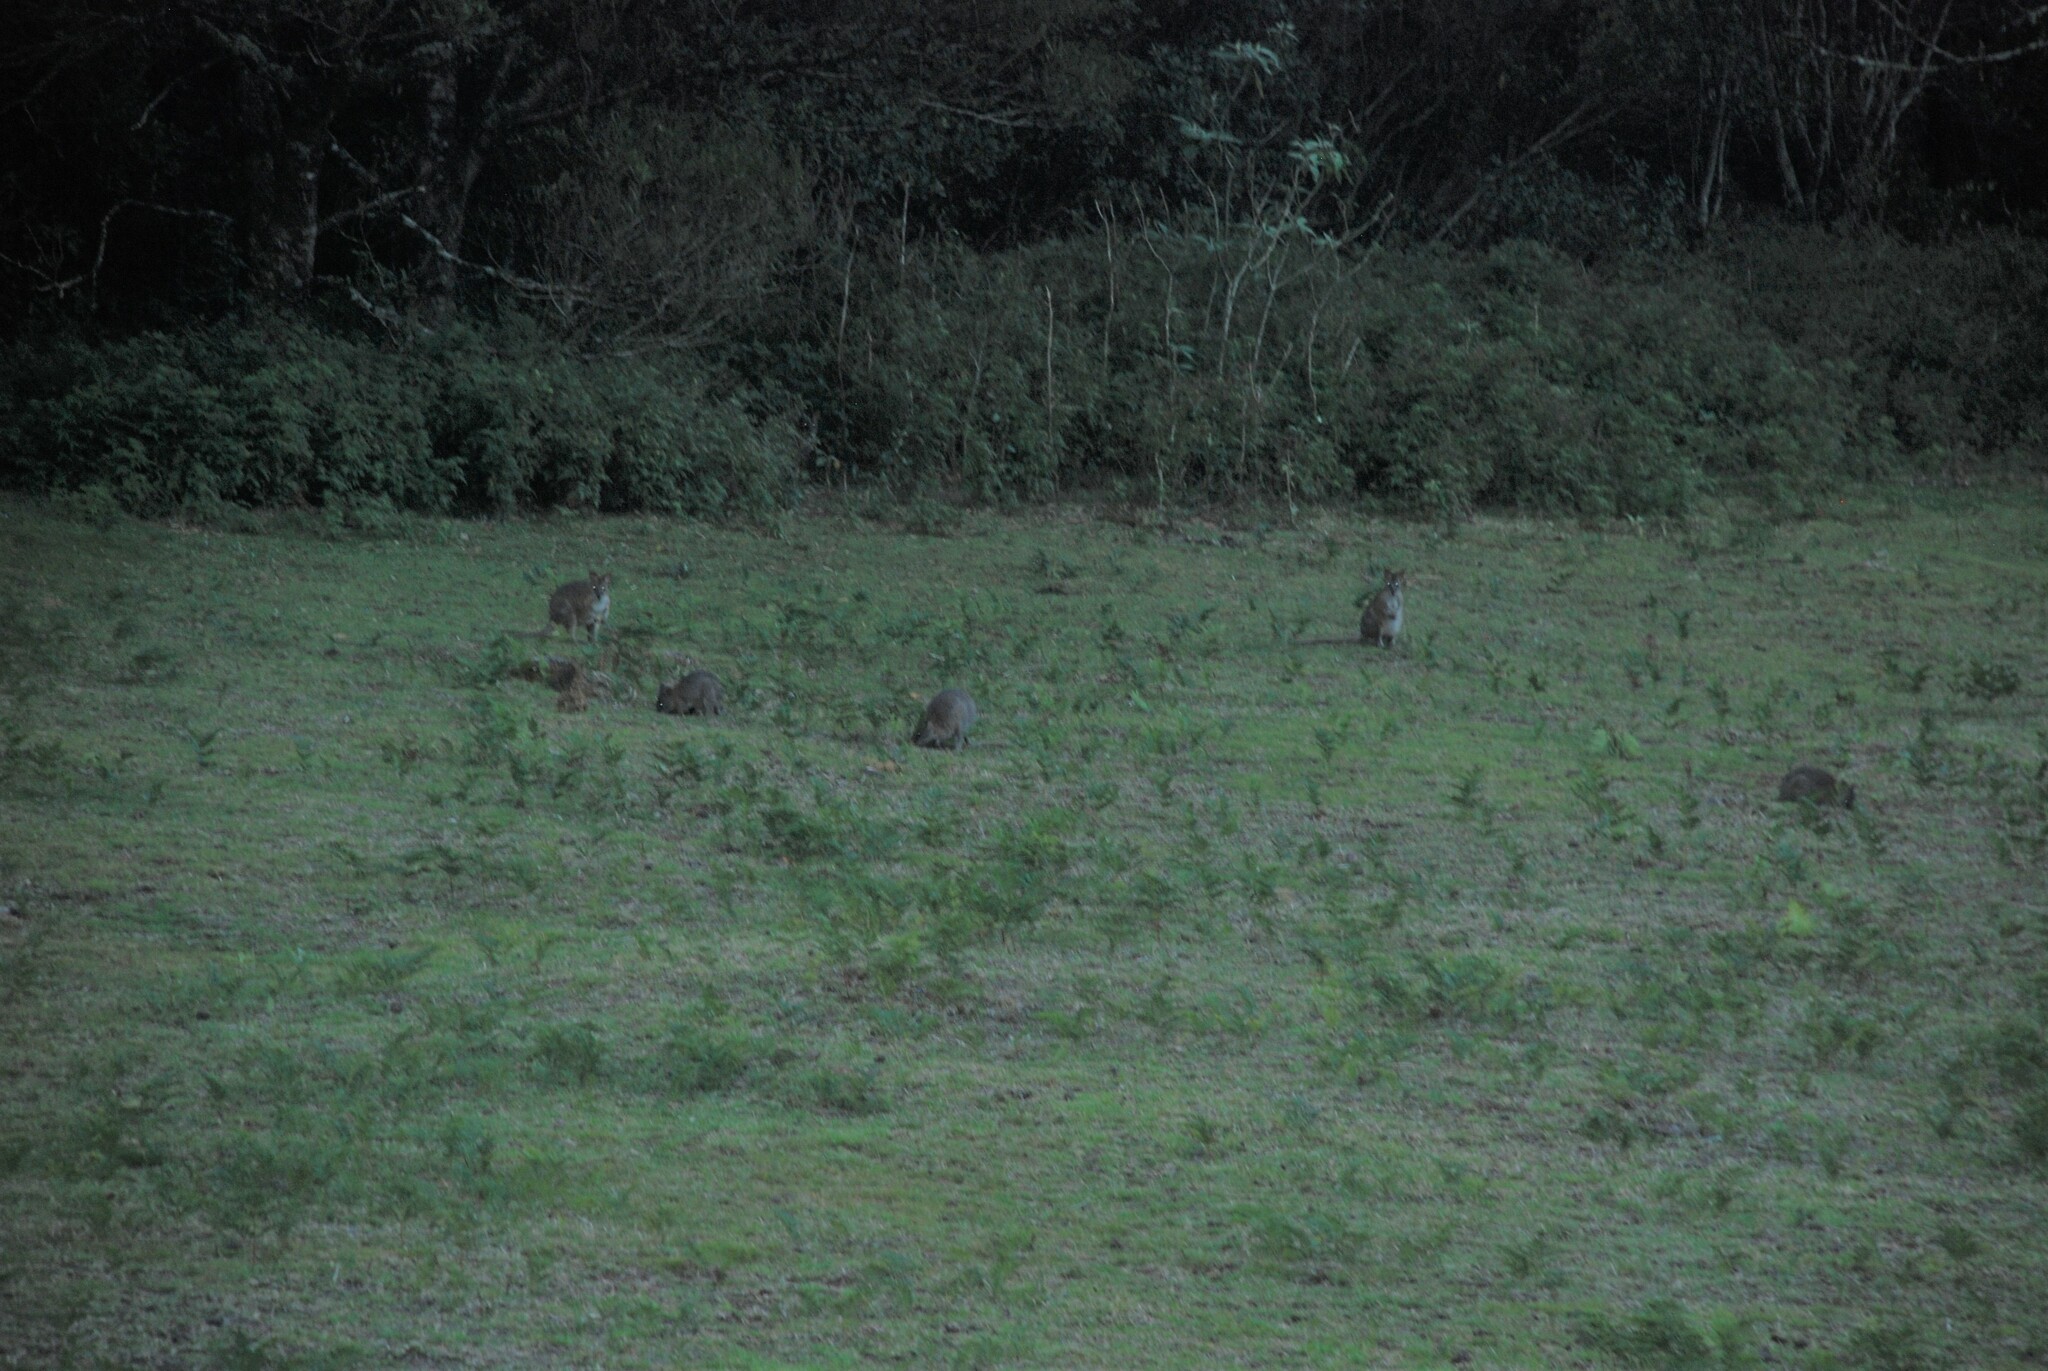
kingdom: Animalia
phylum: Chordata
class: Mammalia
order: Diprotodontia
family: Macropodidae
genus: Thylogale
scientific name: Thylogale thetis
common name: Red-necked pademelon
